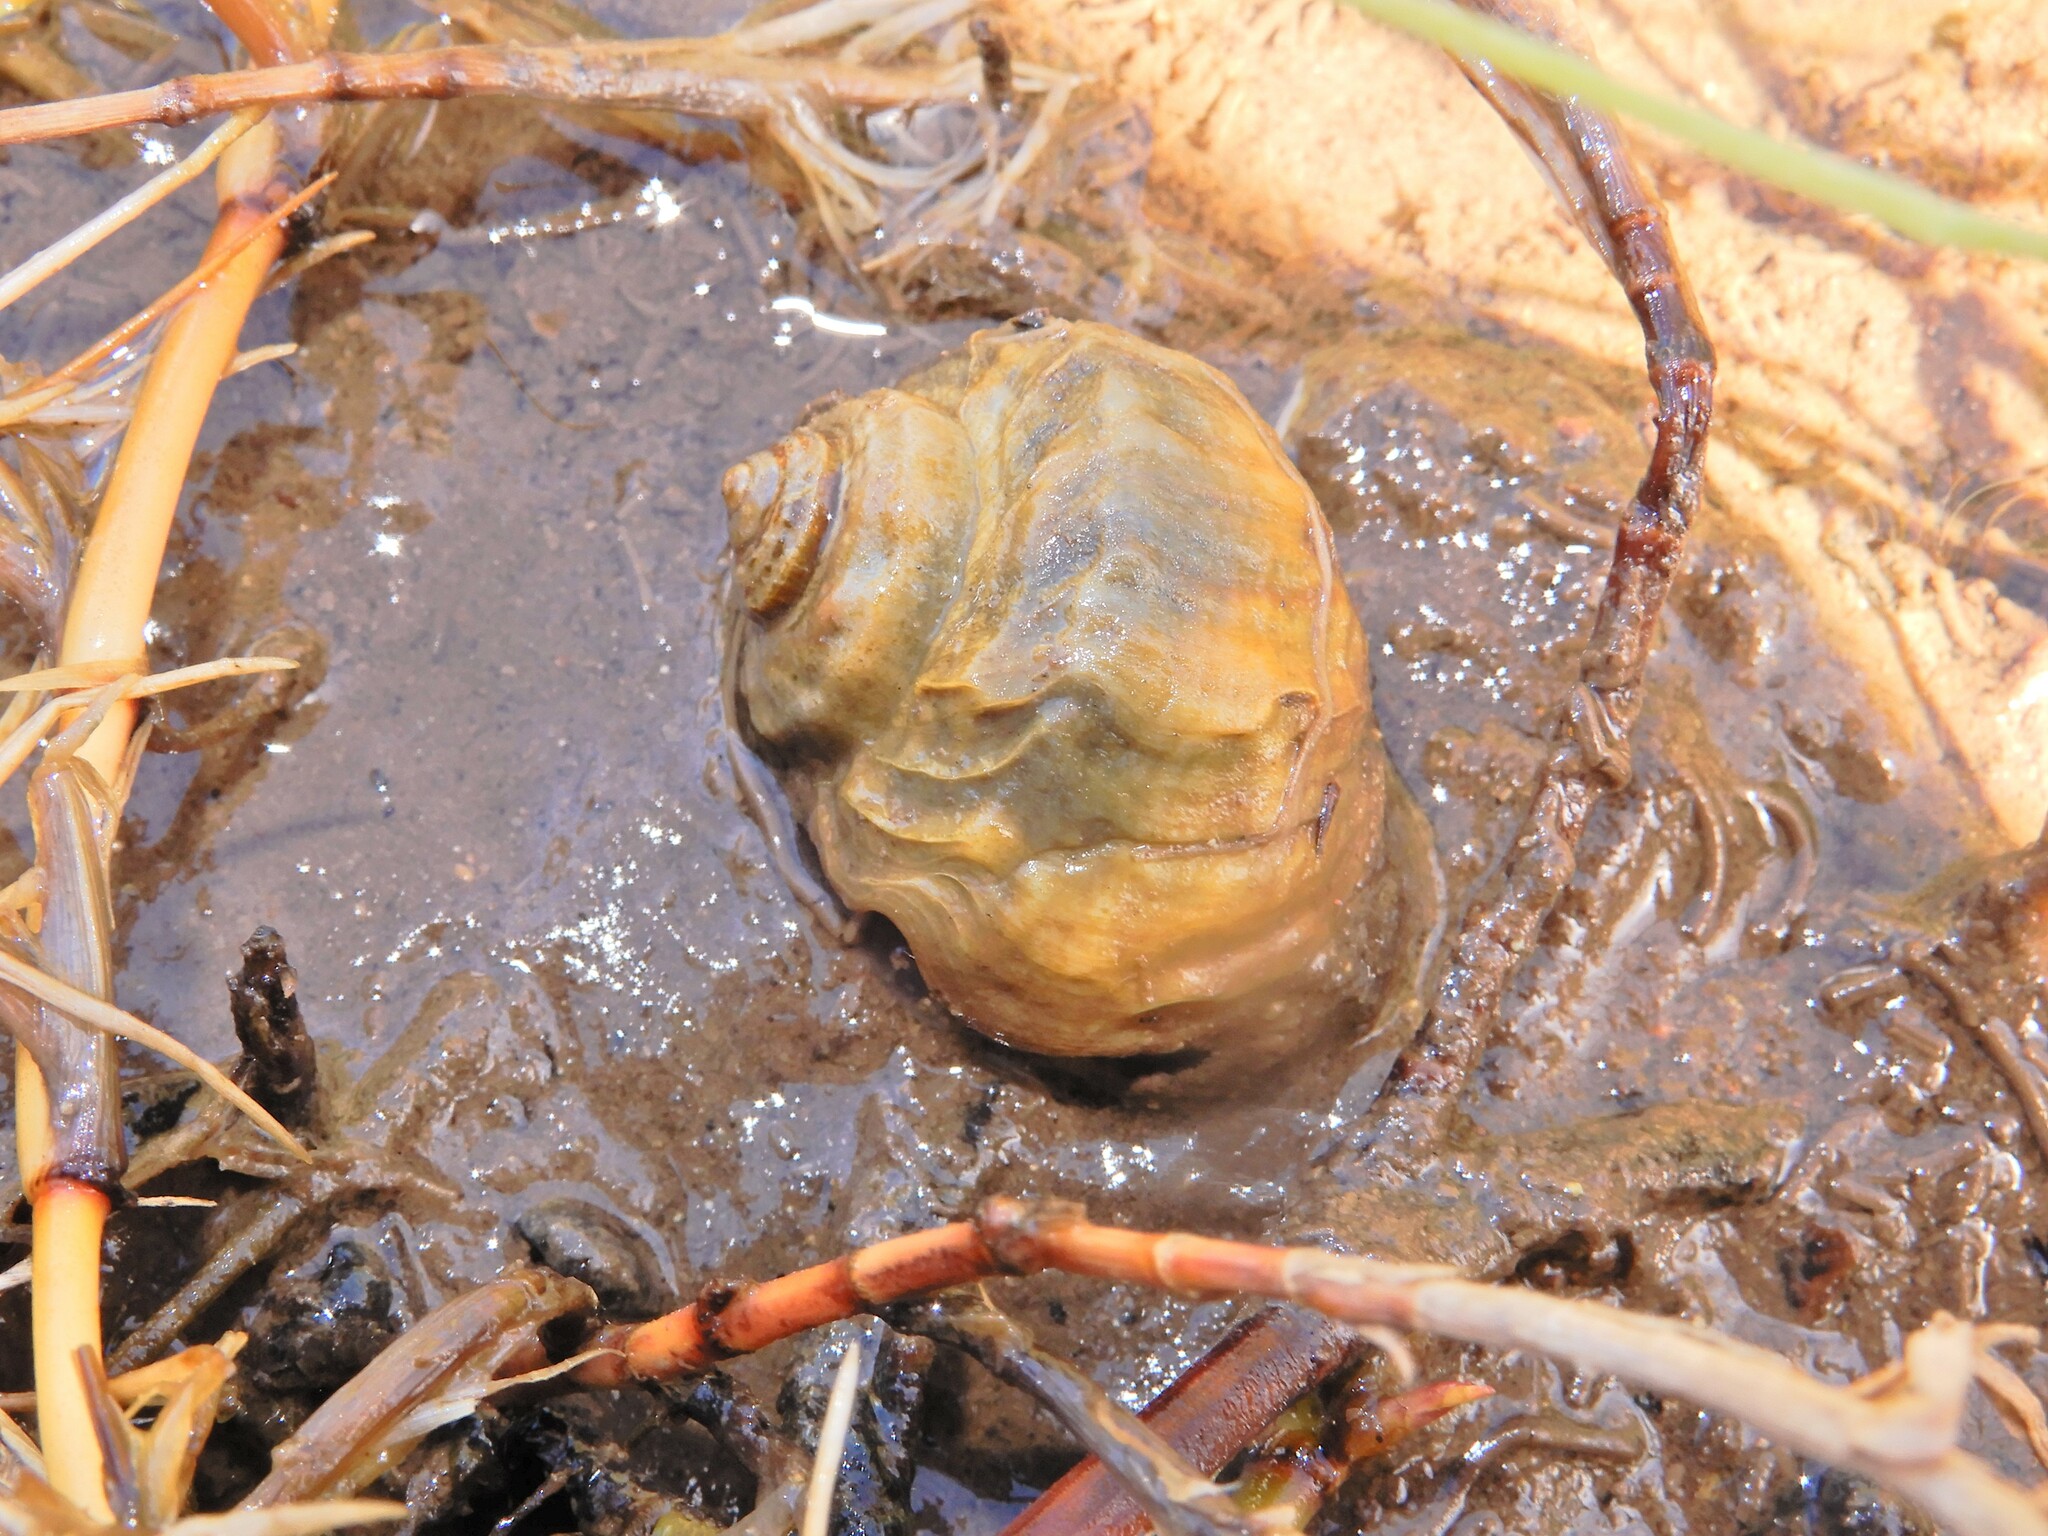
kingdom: Animalia
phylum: Mollusca
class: Gastropoda
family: Amphibolidae
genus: Amphibola
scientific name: Amphibola crenata
